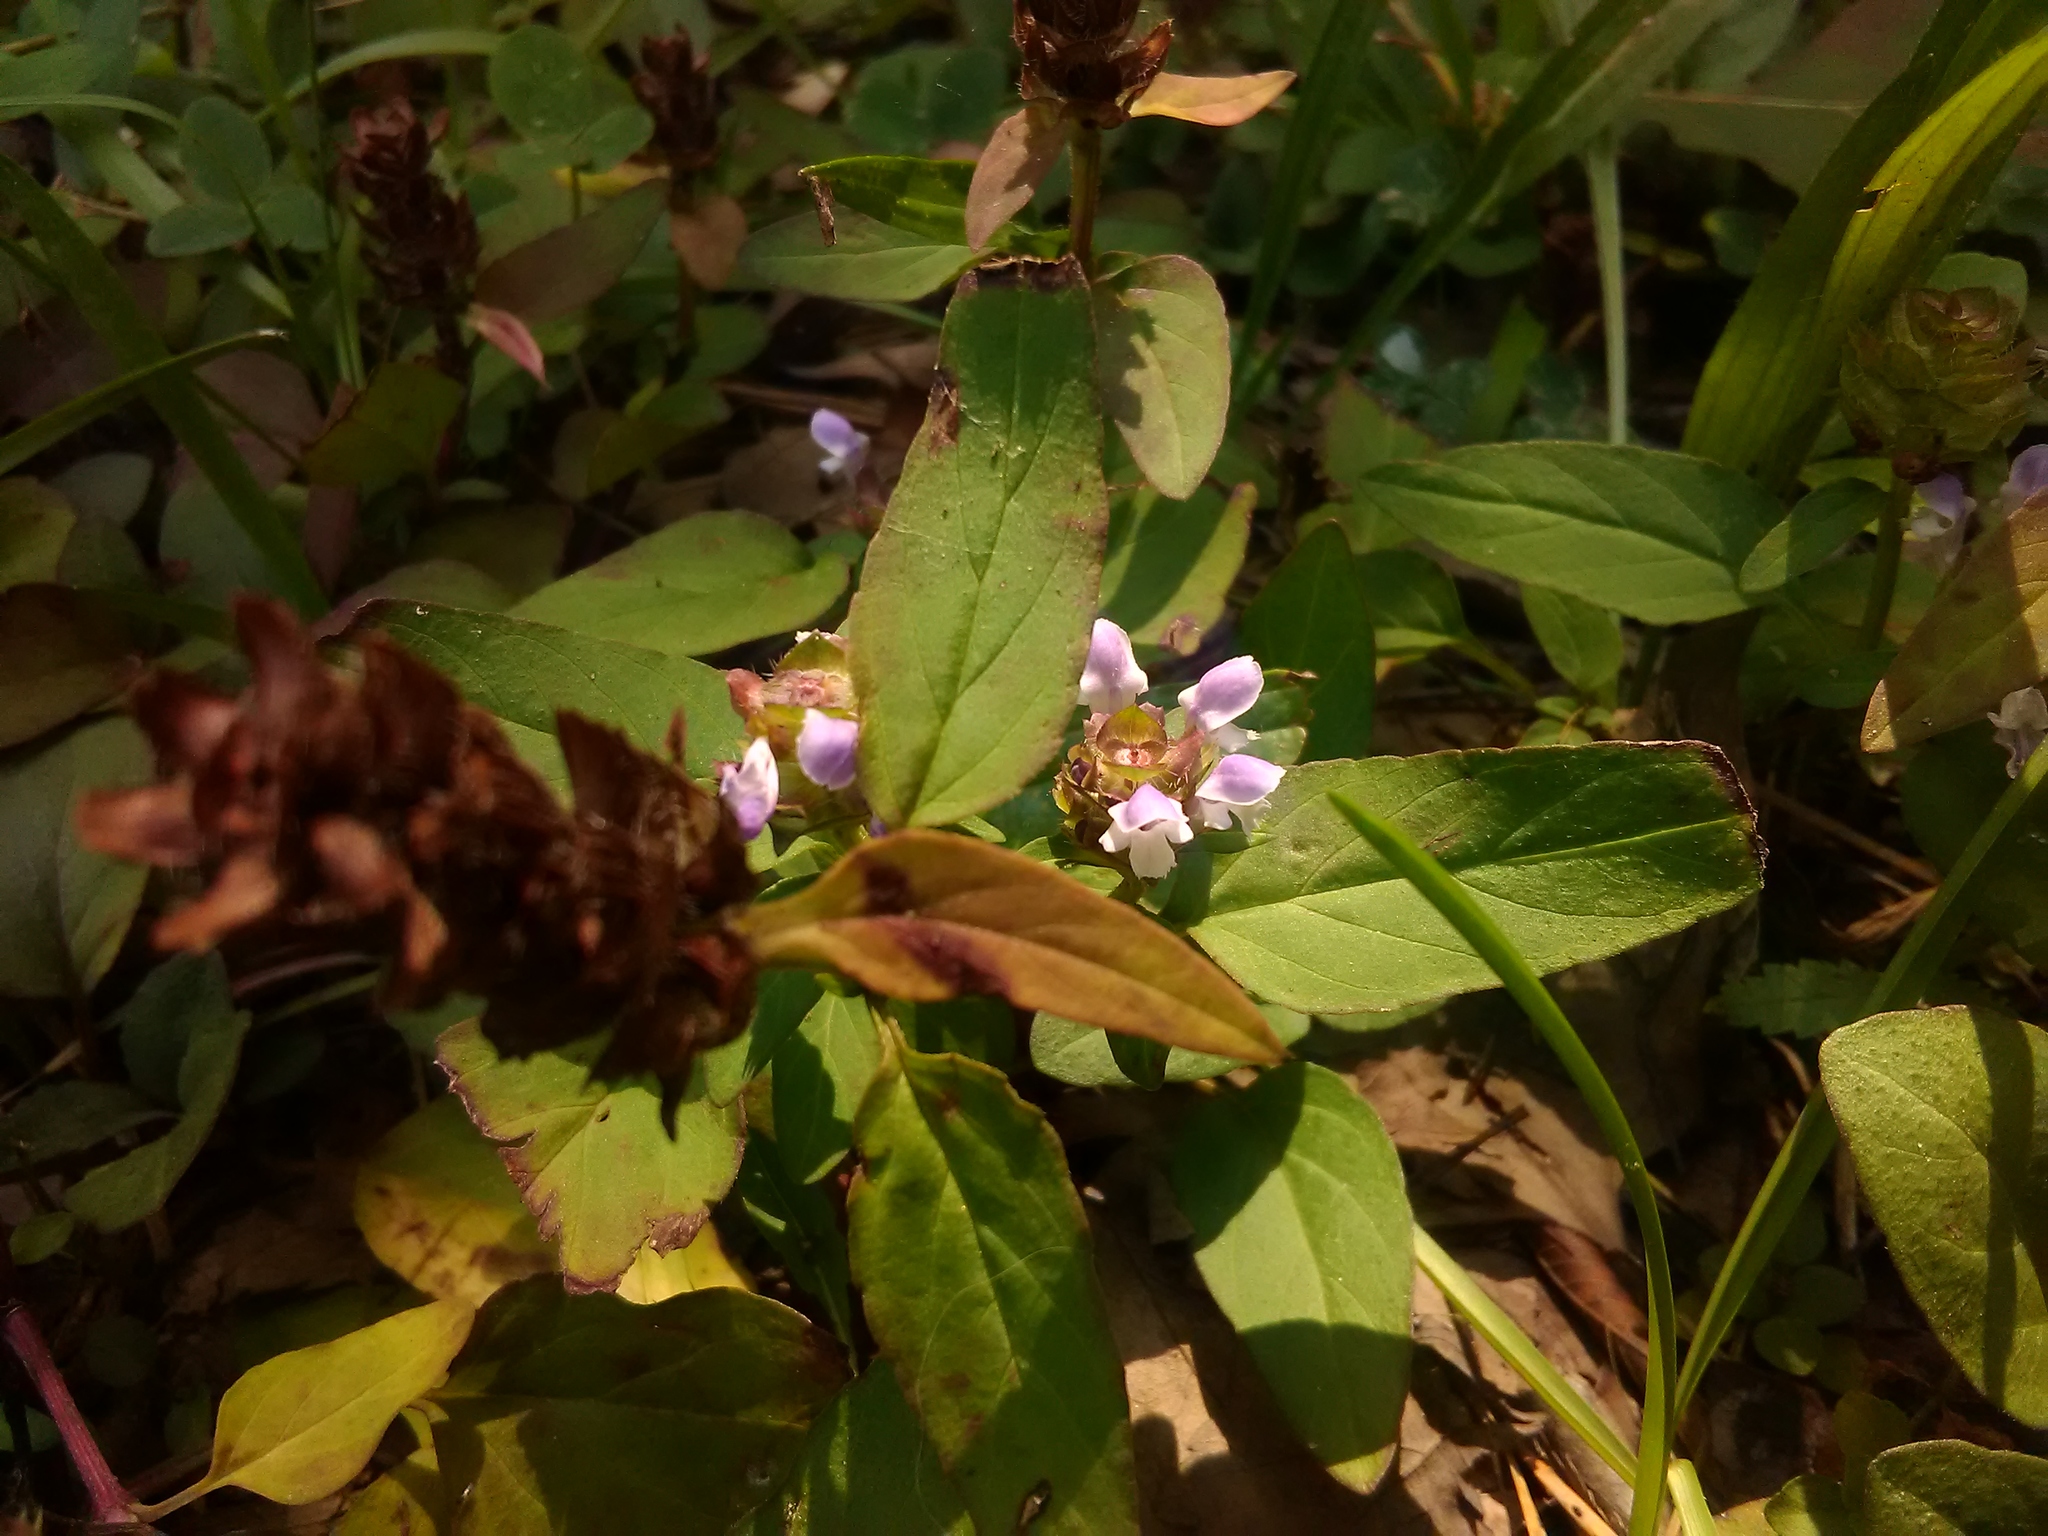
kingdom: Plantae
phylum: Tracheophyta
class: Magnoliopsida
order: Lamiales
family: Lamiaceae
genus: Prunella
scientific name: Prunella vulgaris
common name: Heal-all
